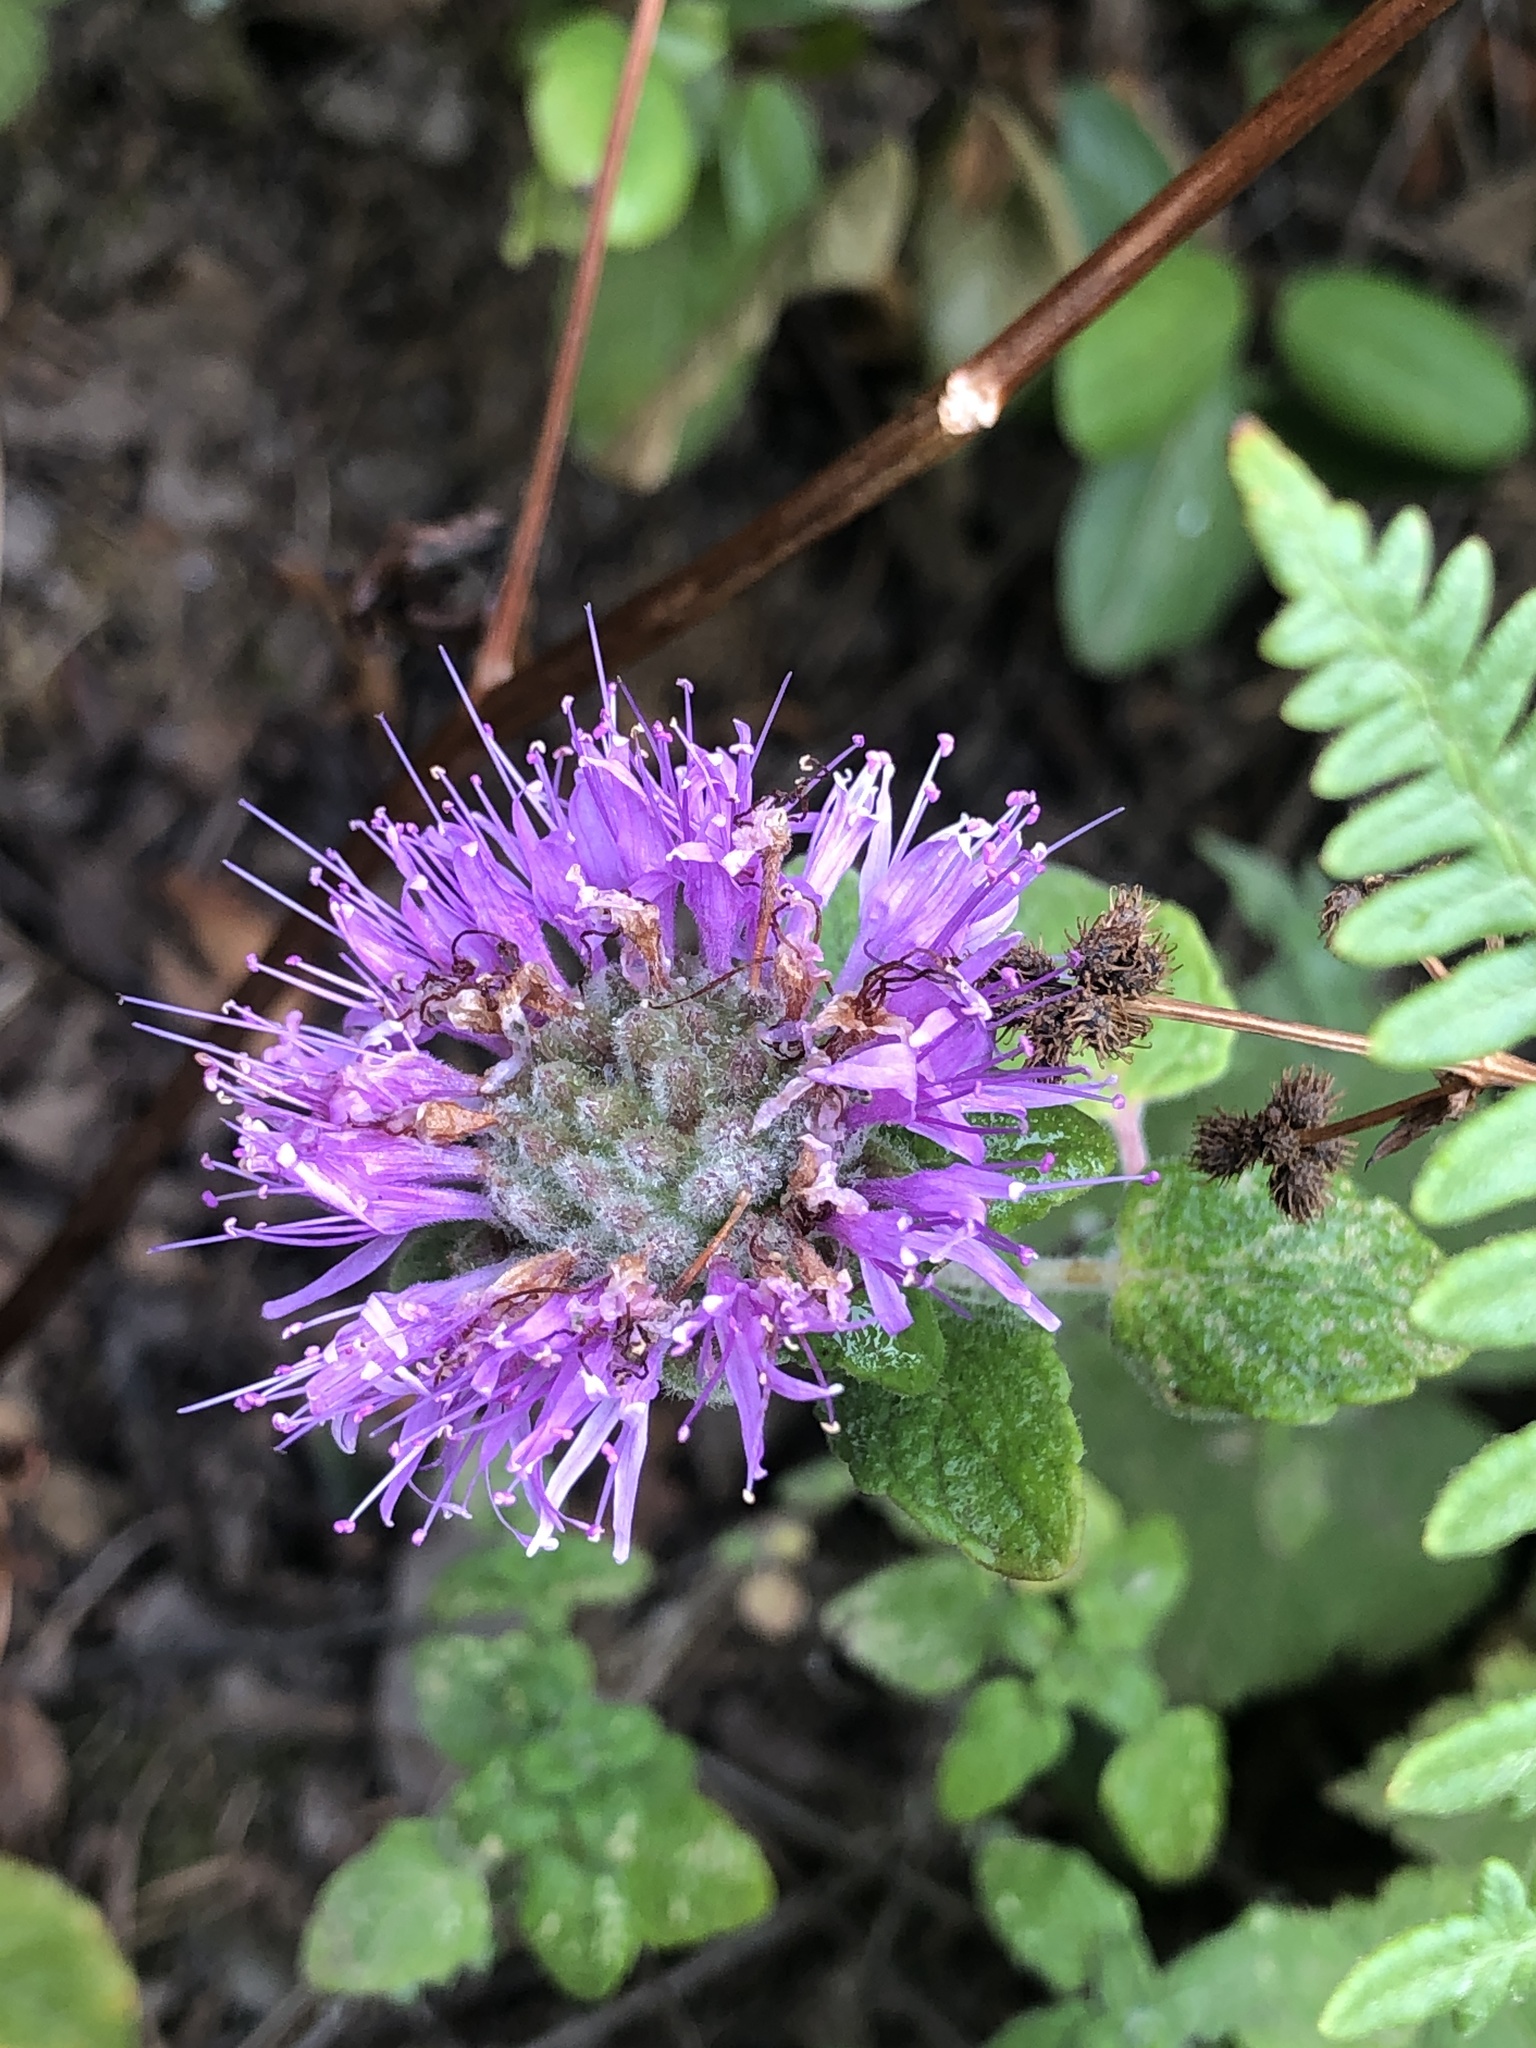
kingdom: Plantae
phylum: Tracheophyta
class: Magnoliopsida
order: Lamiales
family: Lamiaceae
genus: Monardella
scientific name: Monardella odoratissima
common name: Pacific monardella
